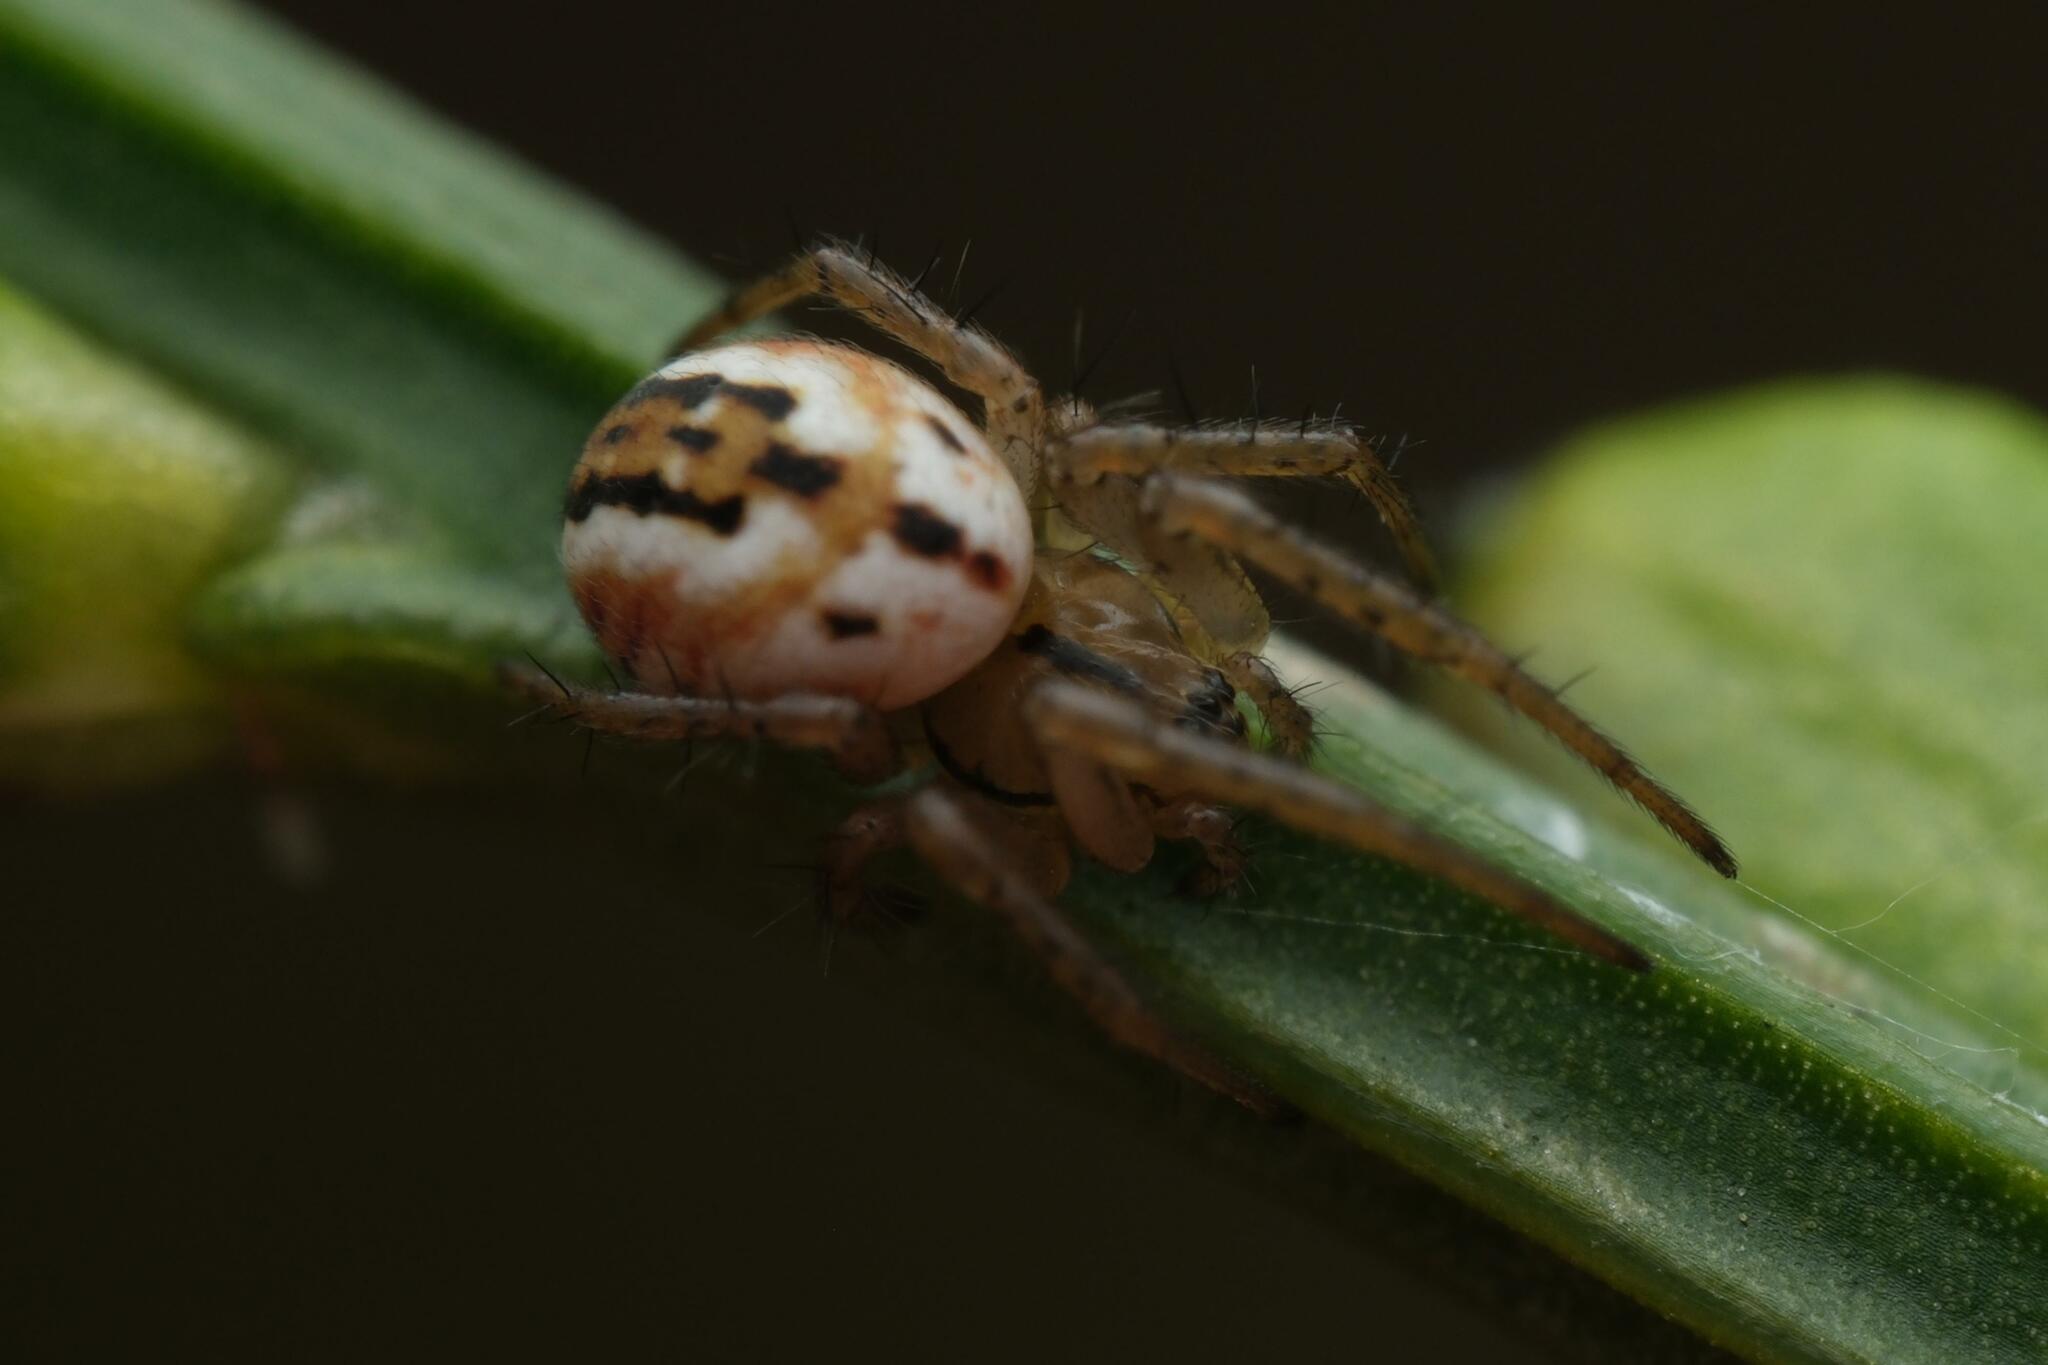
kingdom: Animalia
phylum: Arthropoda
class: Arachnida
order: Araneae
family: Araneidae
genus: Mangora
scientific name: Mangora acalypha
